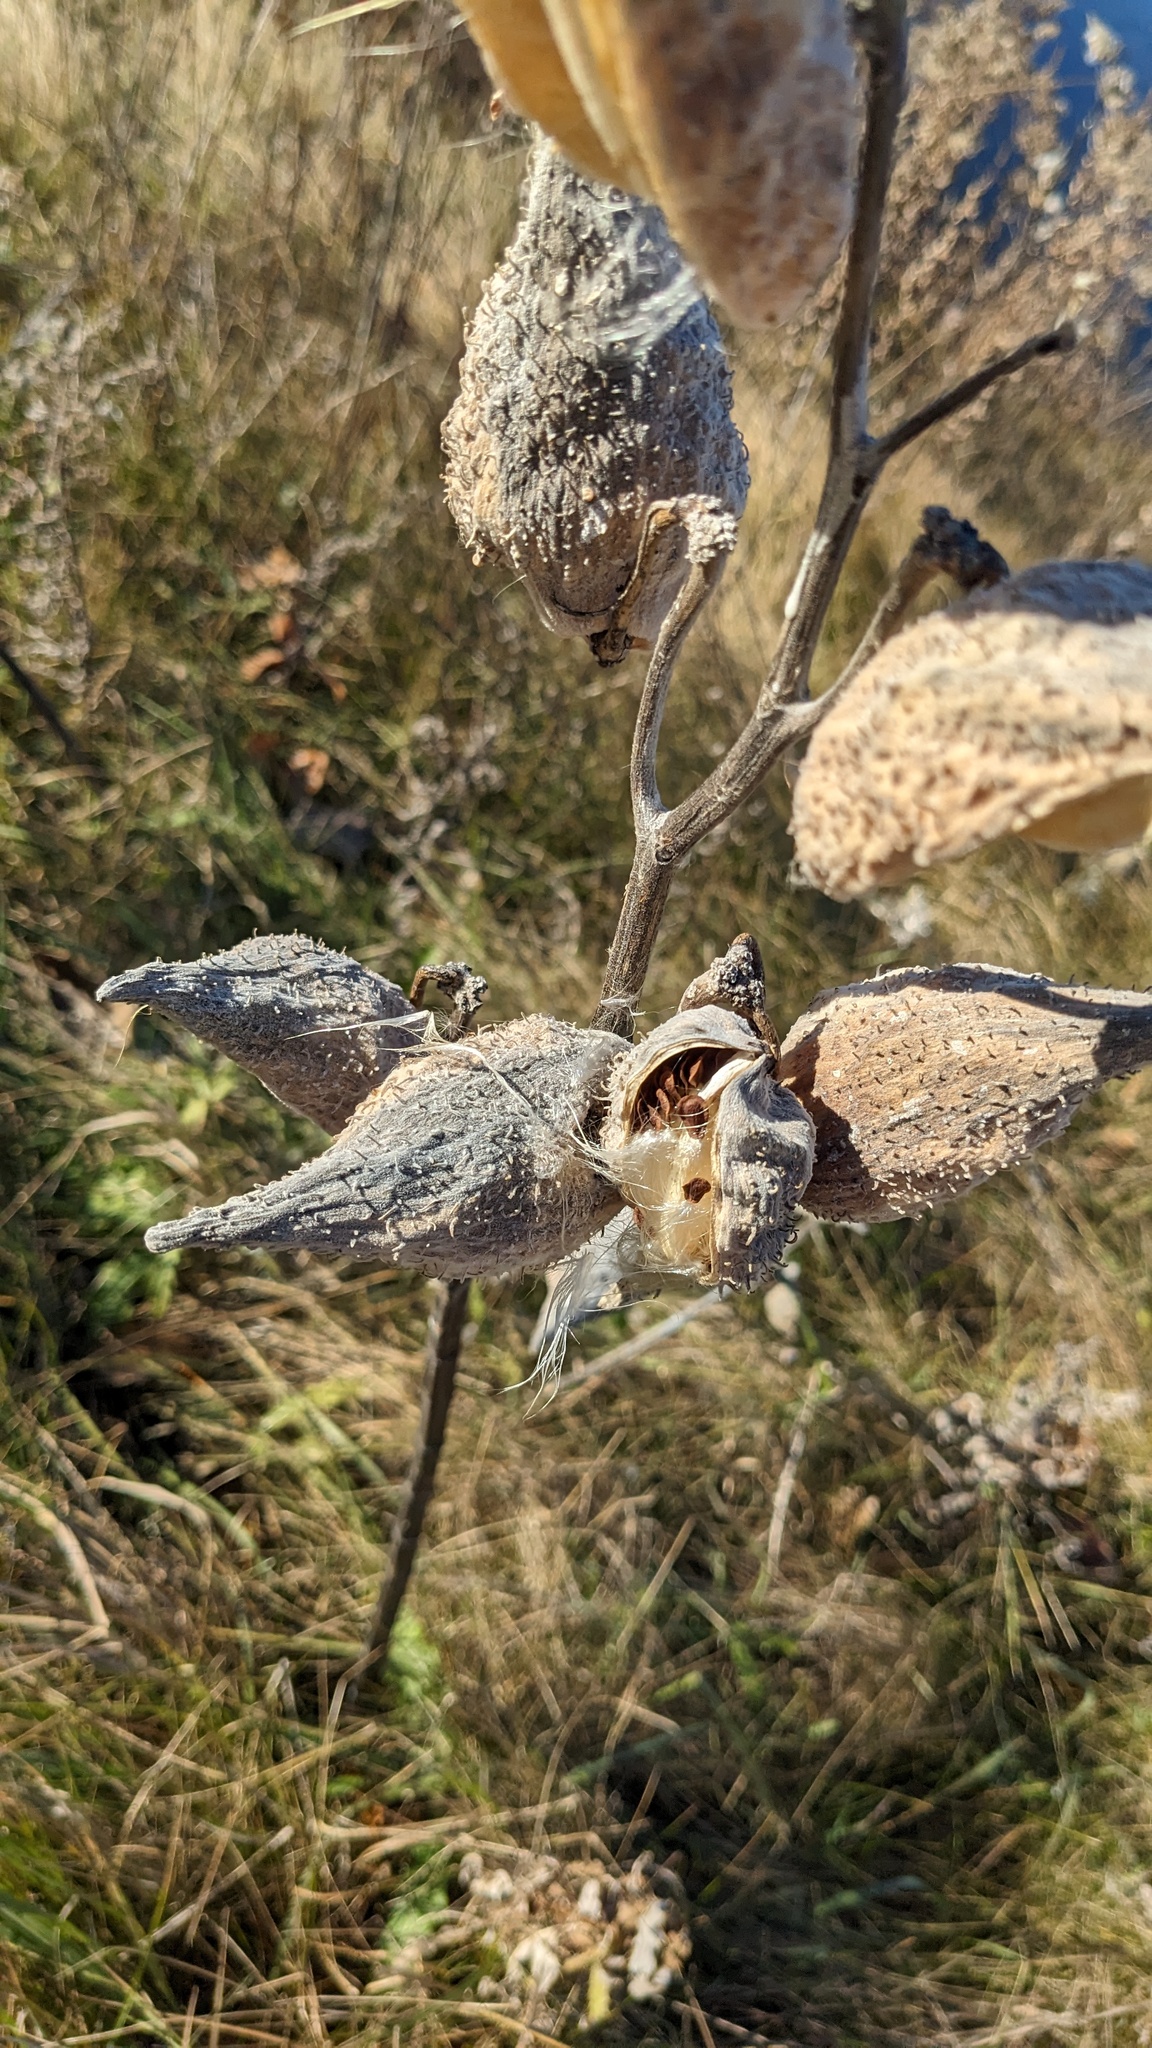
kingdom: Plantae
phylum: Tracheophyta
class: Magnoliopsida
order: Gentianales
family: Apocynaceae
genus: Asclepias
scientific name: Asclepias syriaca
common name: Common milkweed
